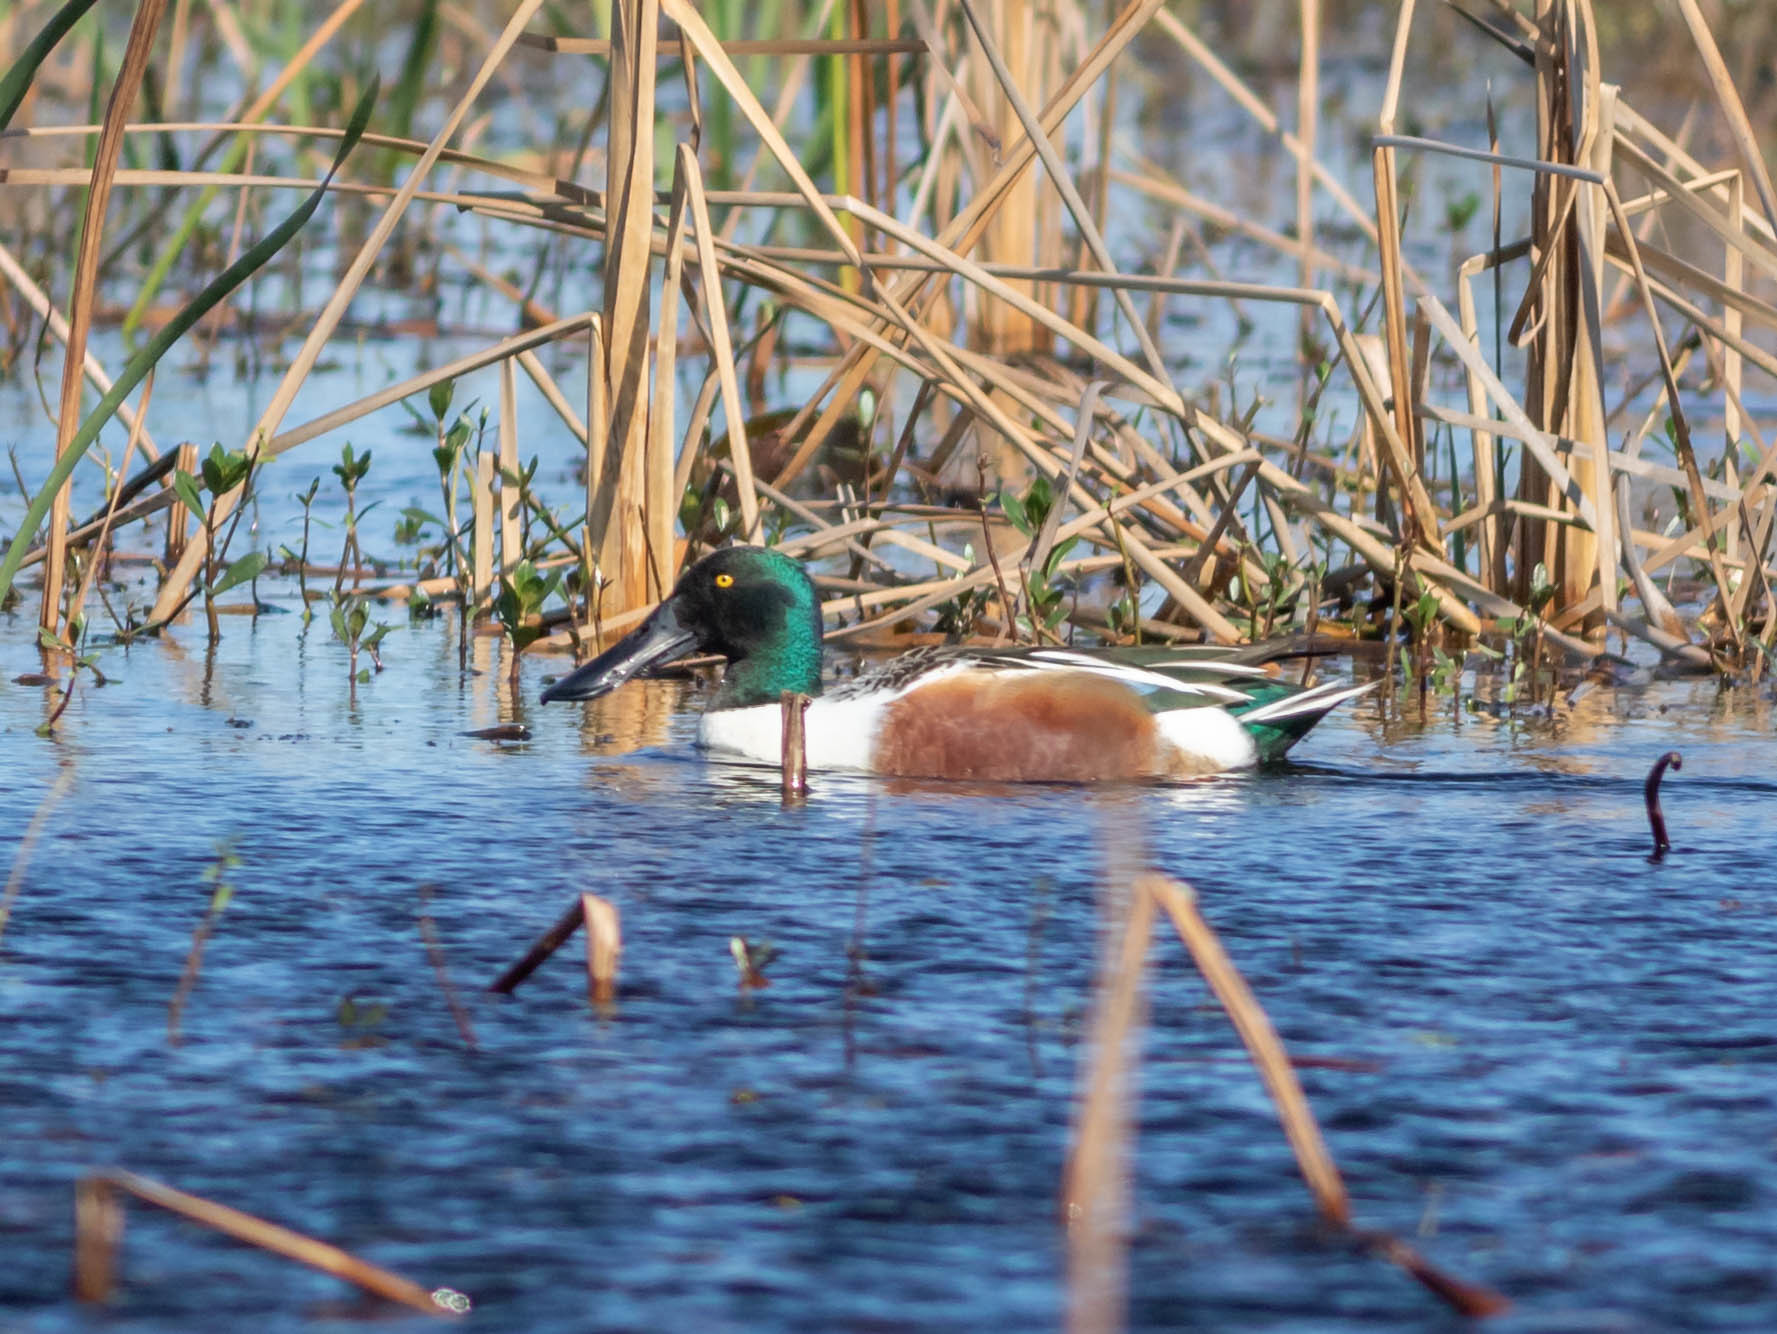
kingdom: Animalia
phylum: Chordata
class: Aves
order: Anseriformes
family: Anatidae
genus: Spatula
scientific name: Spatula clypeata
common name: Northern shoveler
